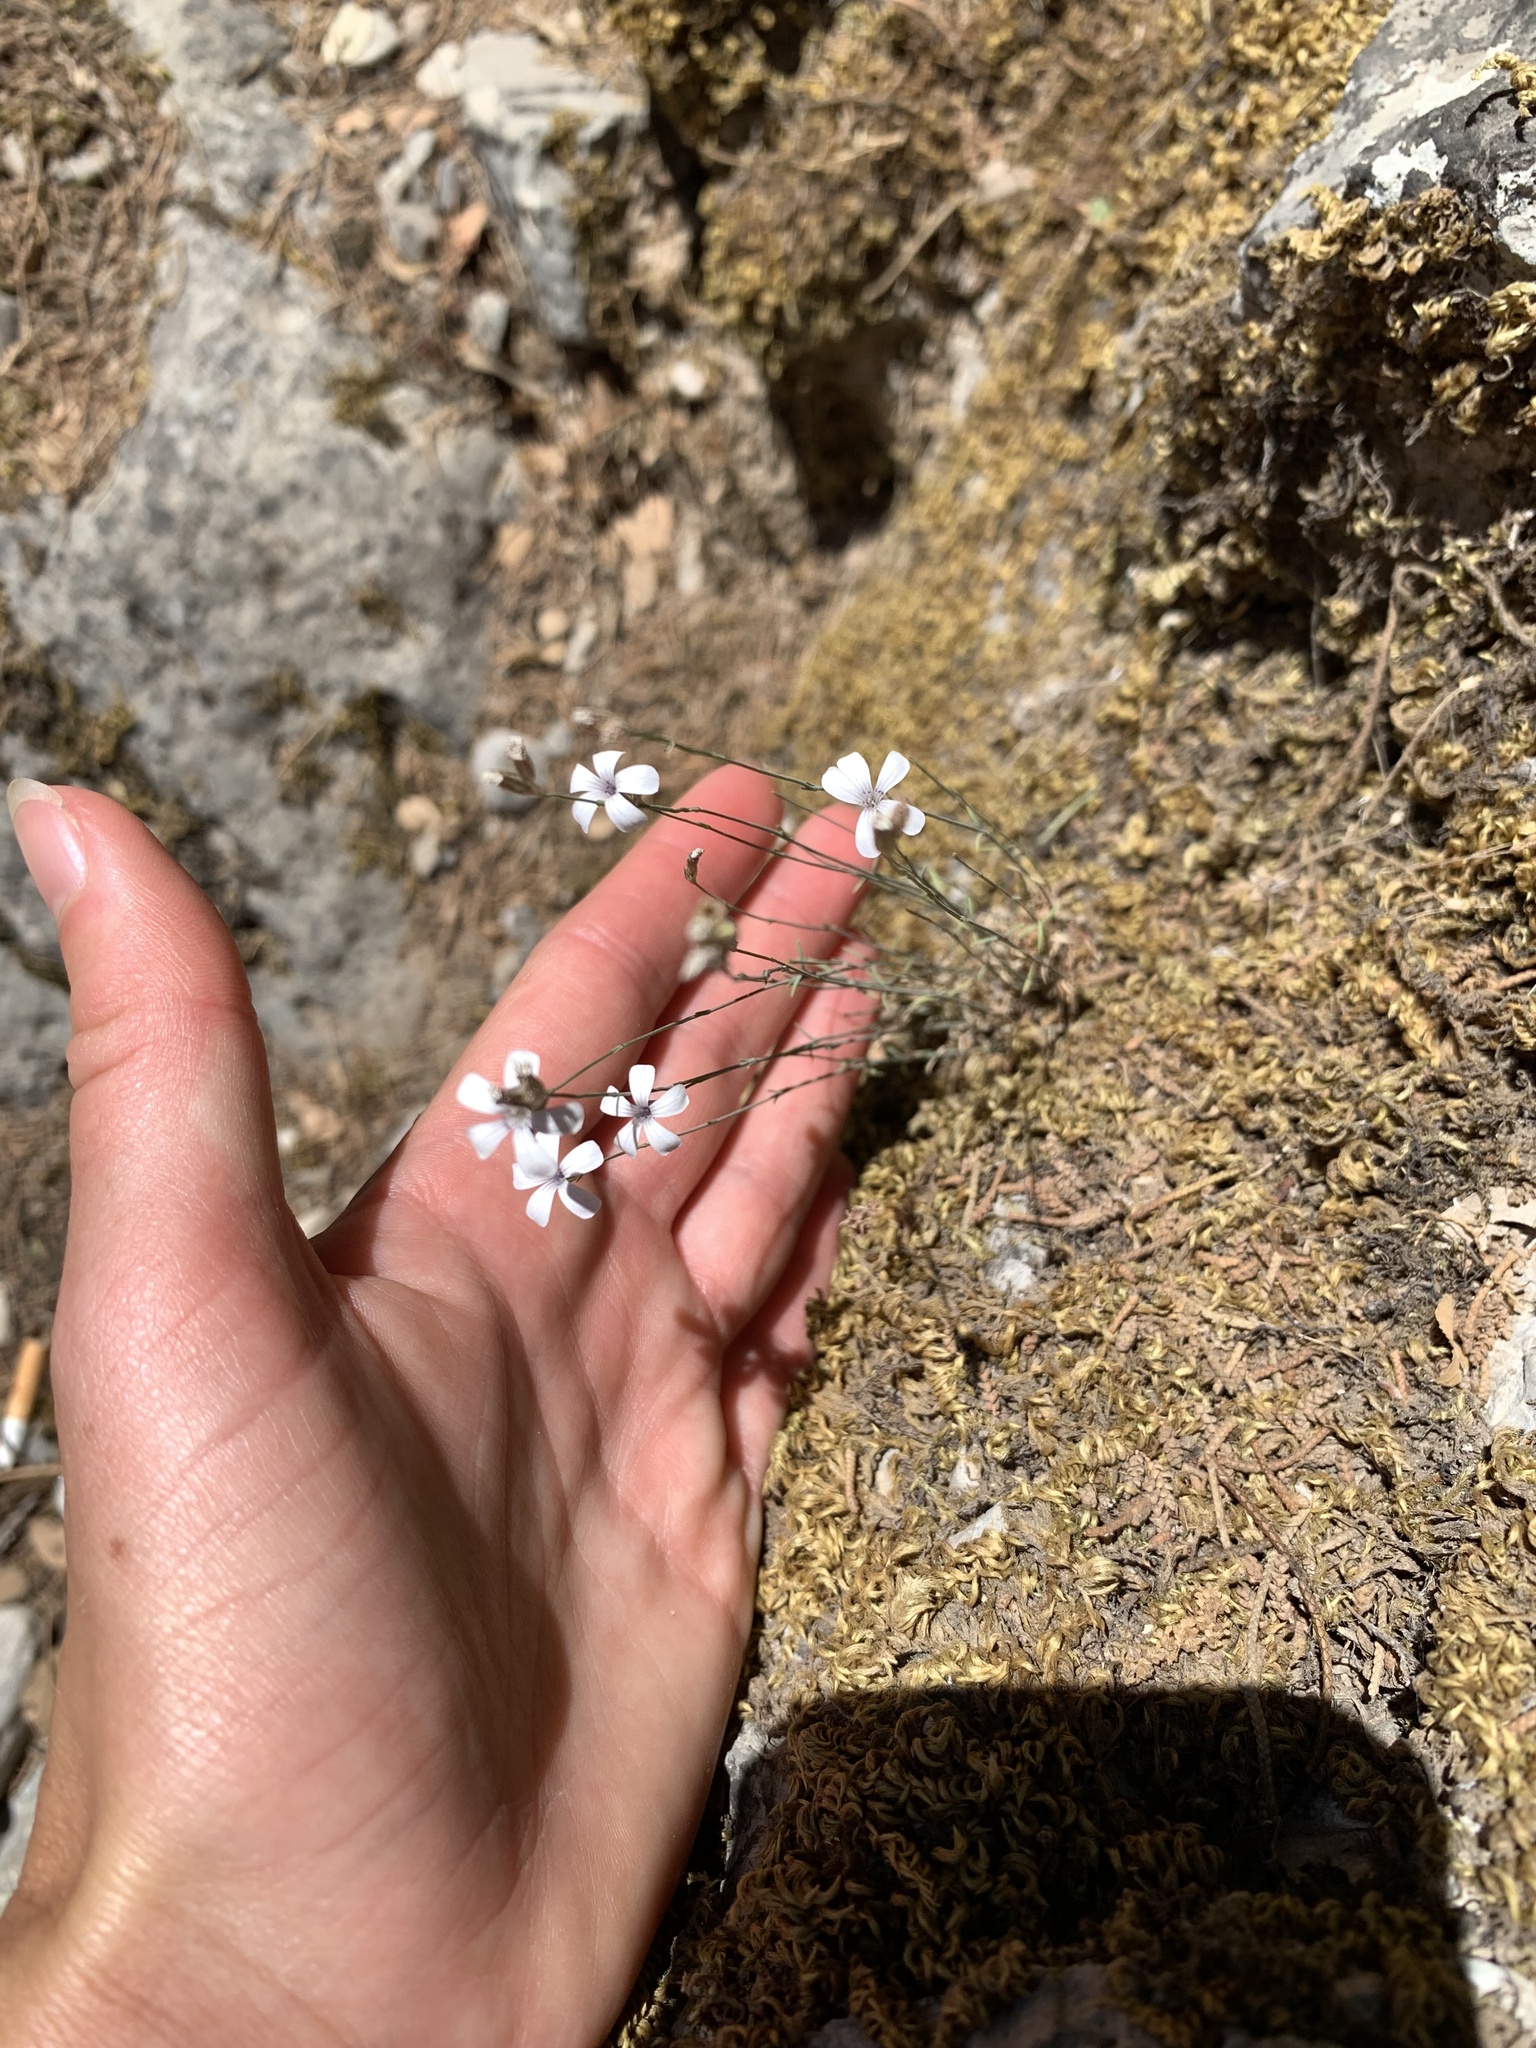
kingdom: Plantae
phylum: Tracheophyta
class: Magnoliopsida
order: Caryophyllales
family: Caryophyllaceae
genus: Petrorhagia
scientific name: Petrorhagia dianthoides
